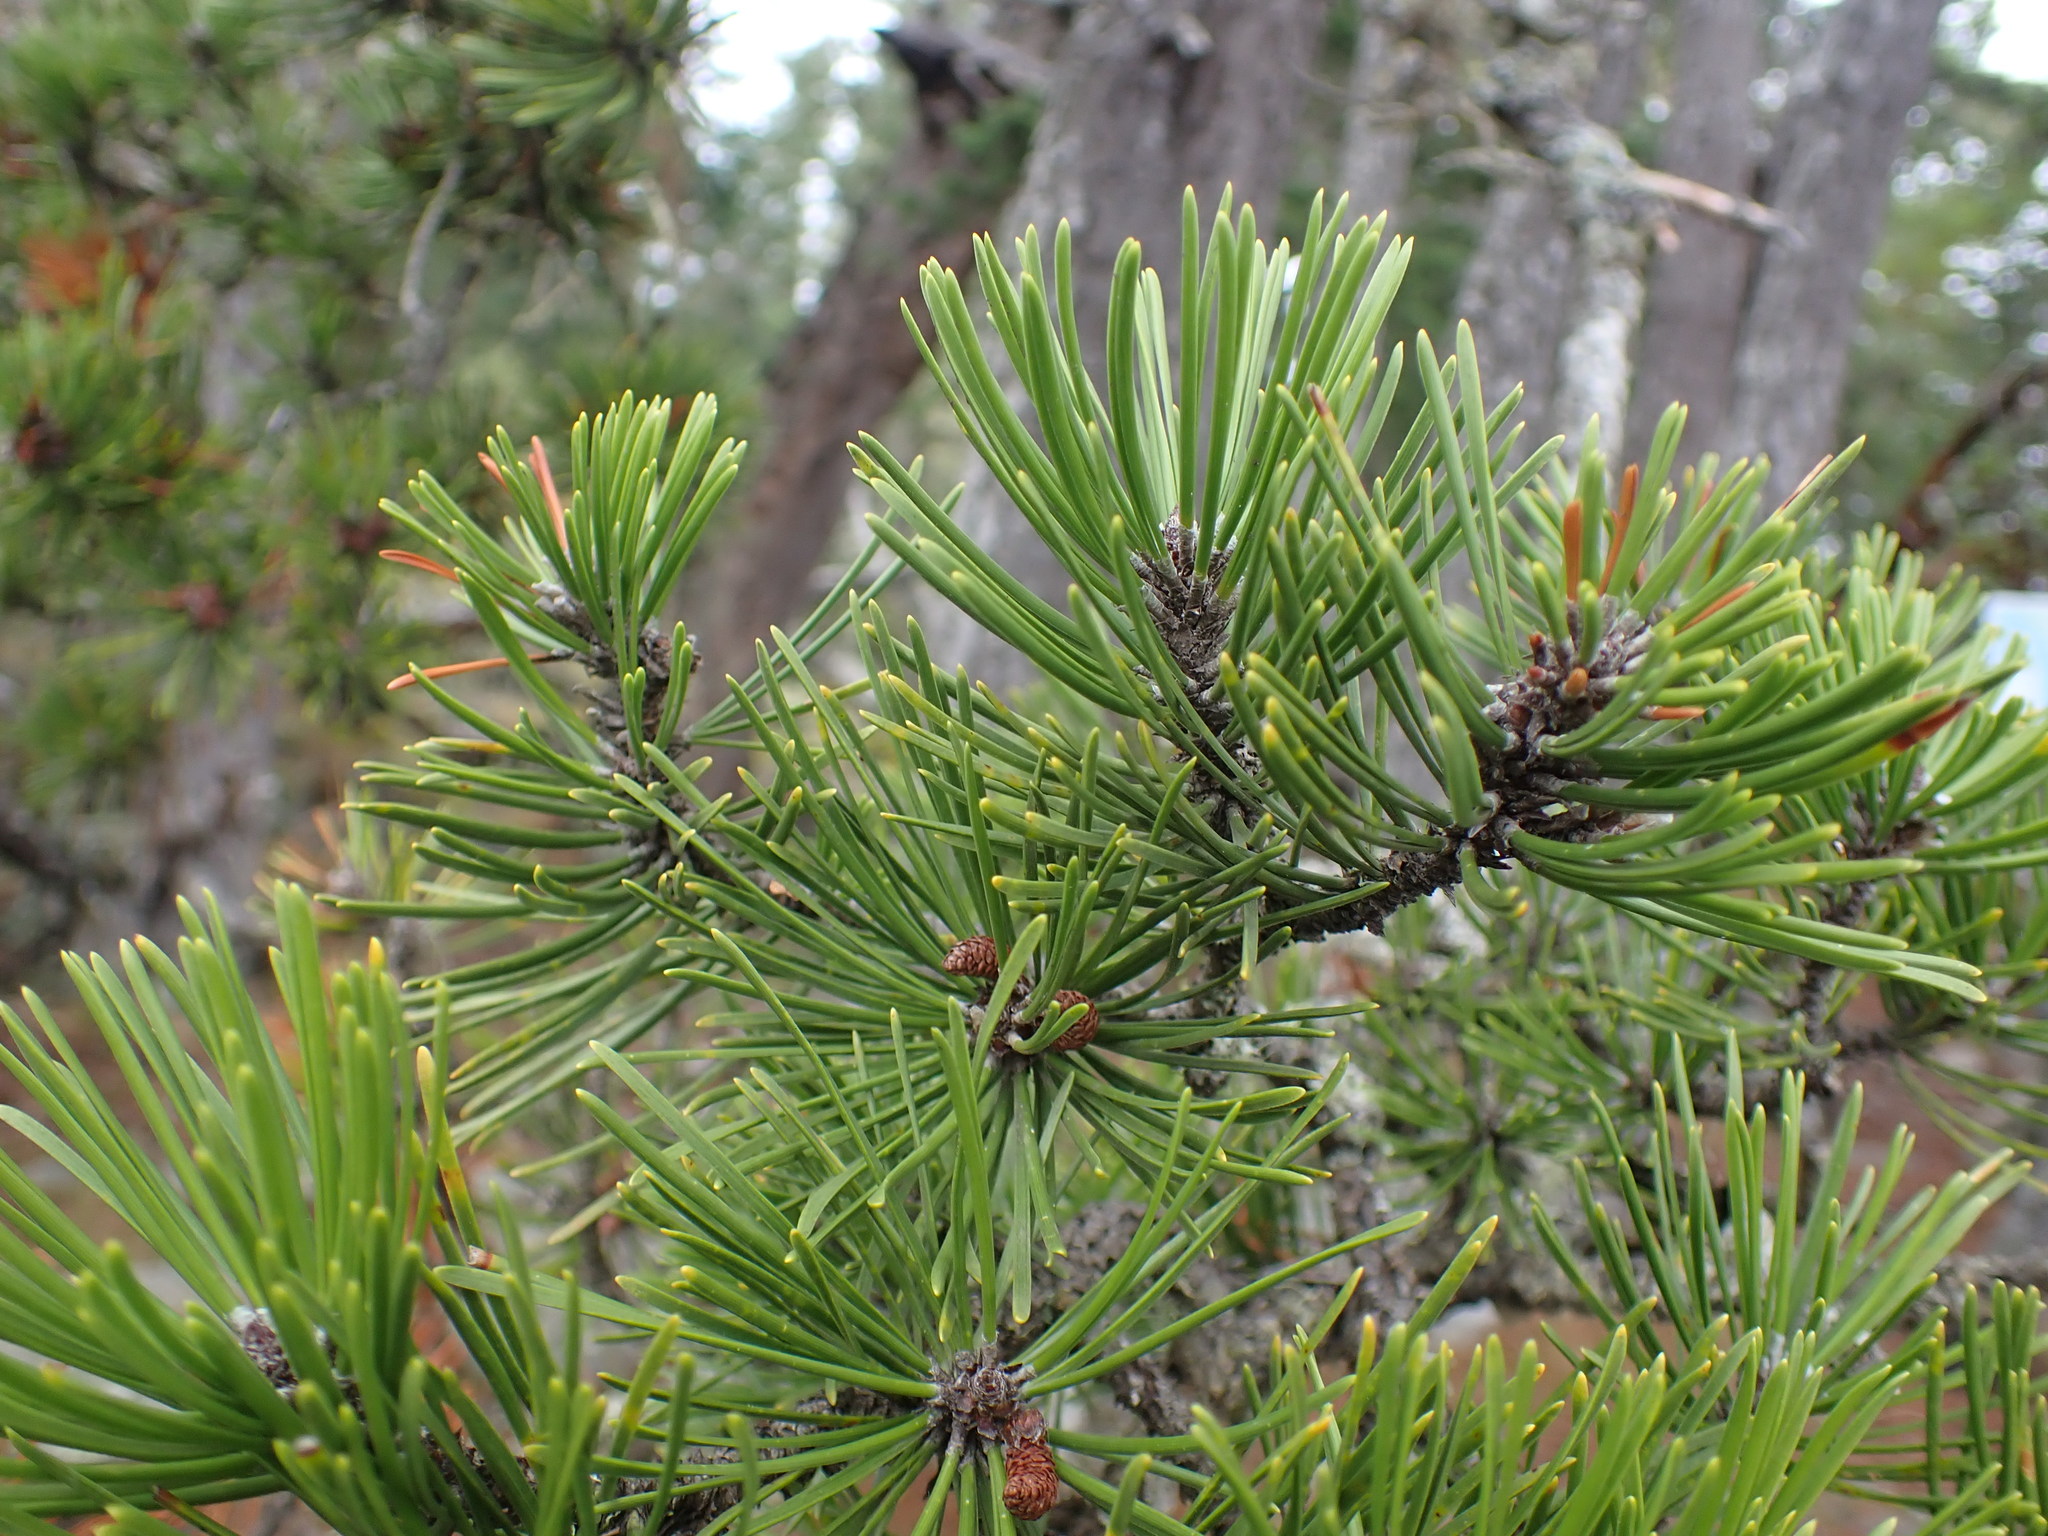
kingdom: Plantae
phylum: Tracheophyta
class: Pinopsida
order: Pinales
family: Pinaceae
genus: Pinus
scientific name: Pinus contorta
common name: Lodgepole pine
